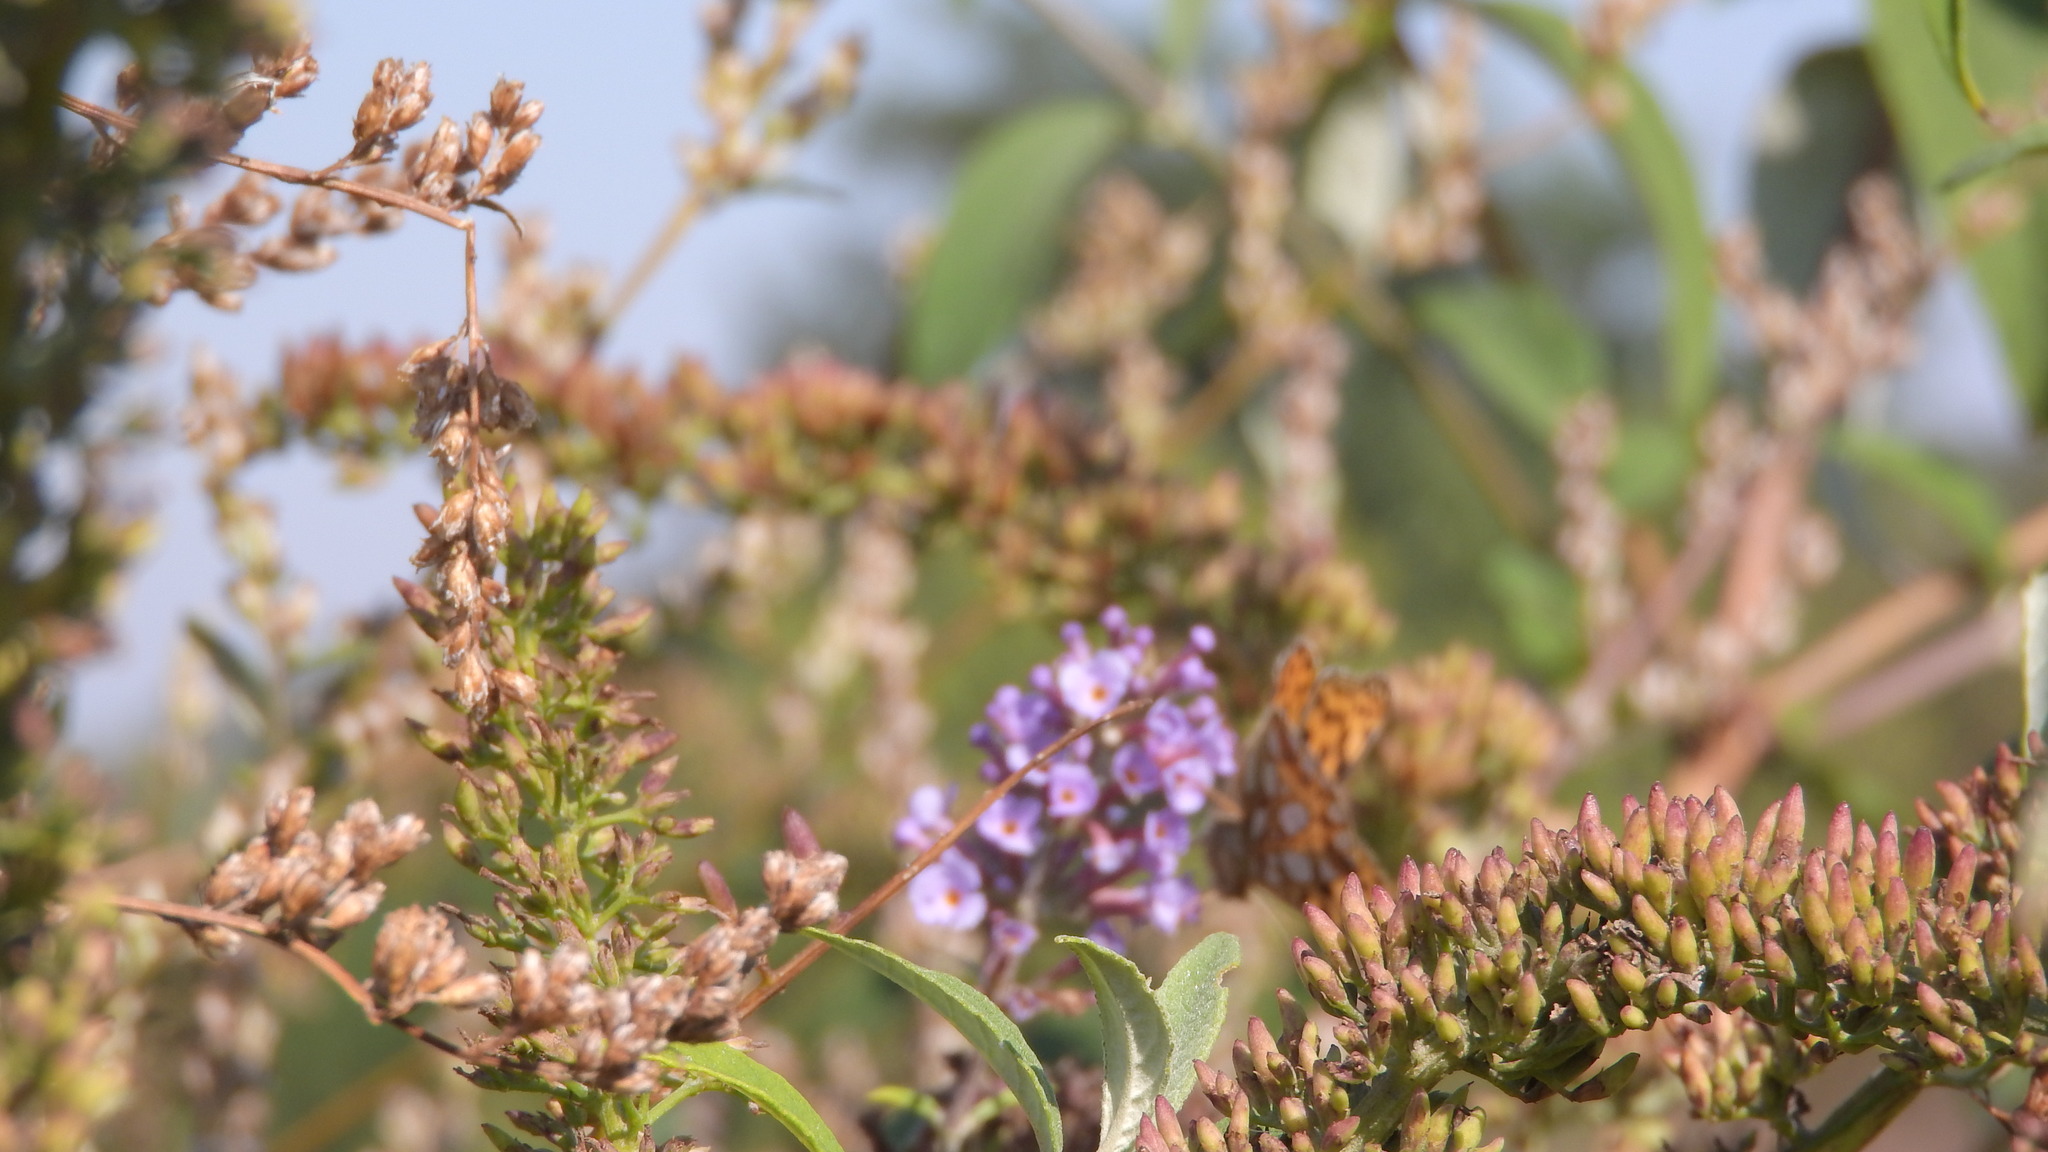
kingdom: Animalia
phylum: Arthropoda
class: Insecta
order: Lepidoptera
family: Nymphalidae
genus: Issoria
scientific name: Issoria lathonia
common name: Queen of spain fritillary
